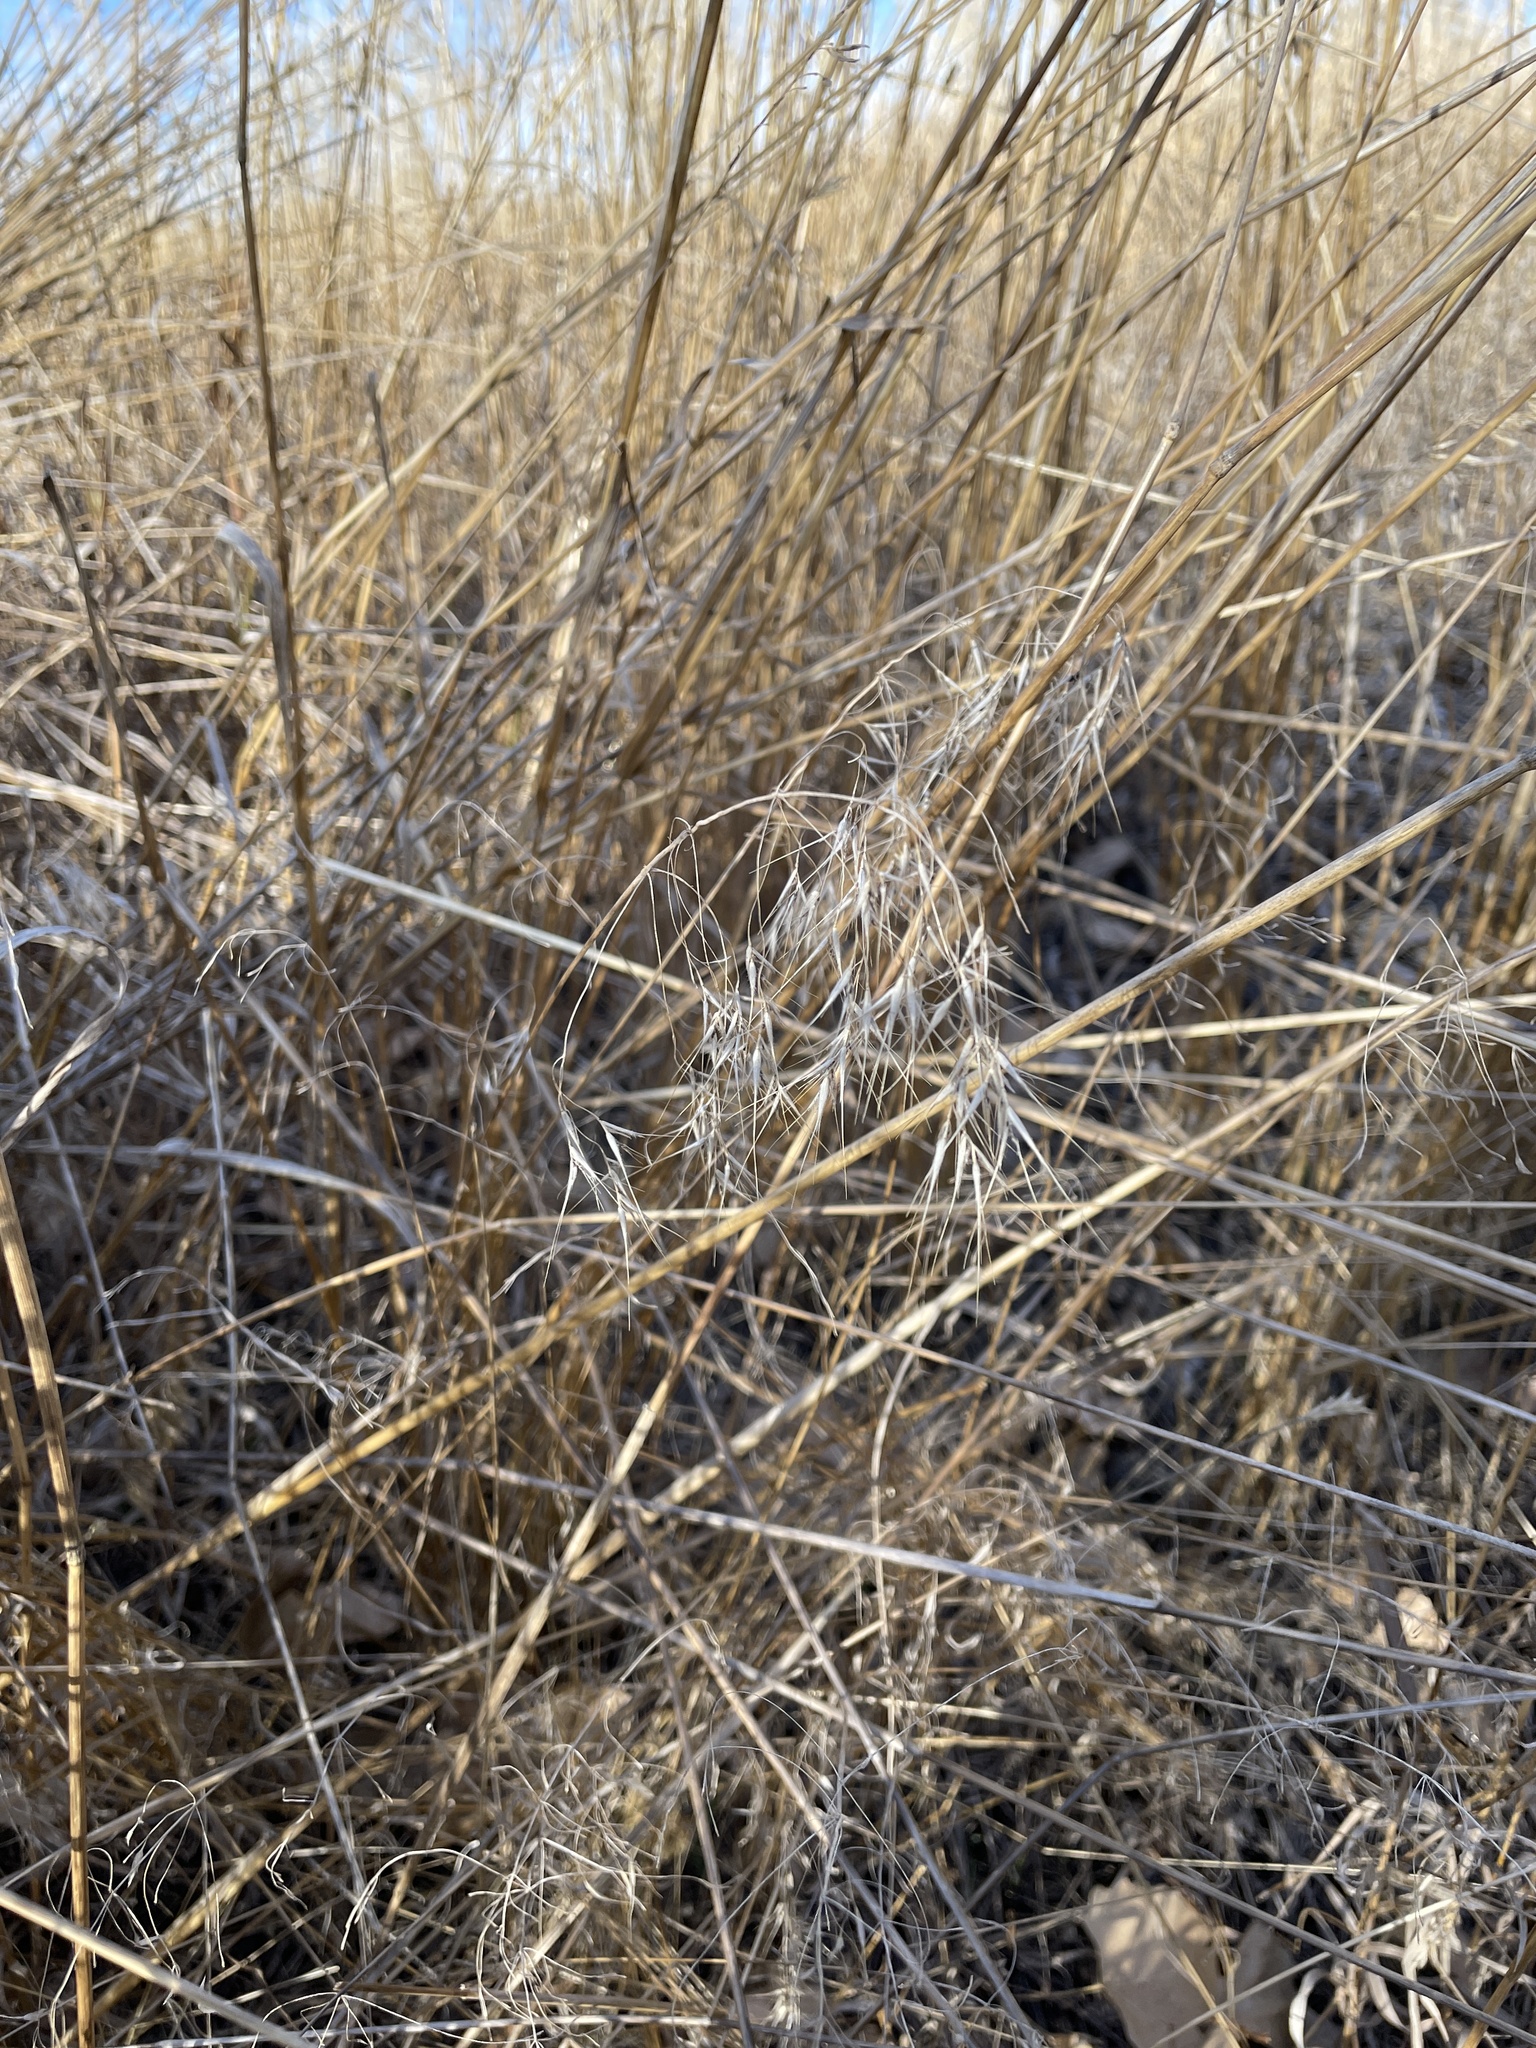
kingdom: Plantae
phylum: Tracheophyta
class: Liliopsida
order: Poales
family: Poaceae
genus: Bromus
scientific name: Bromus tectorum
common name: Cheatgrass
